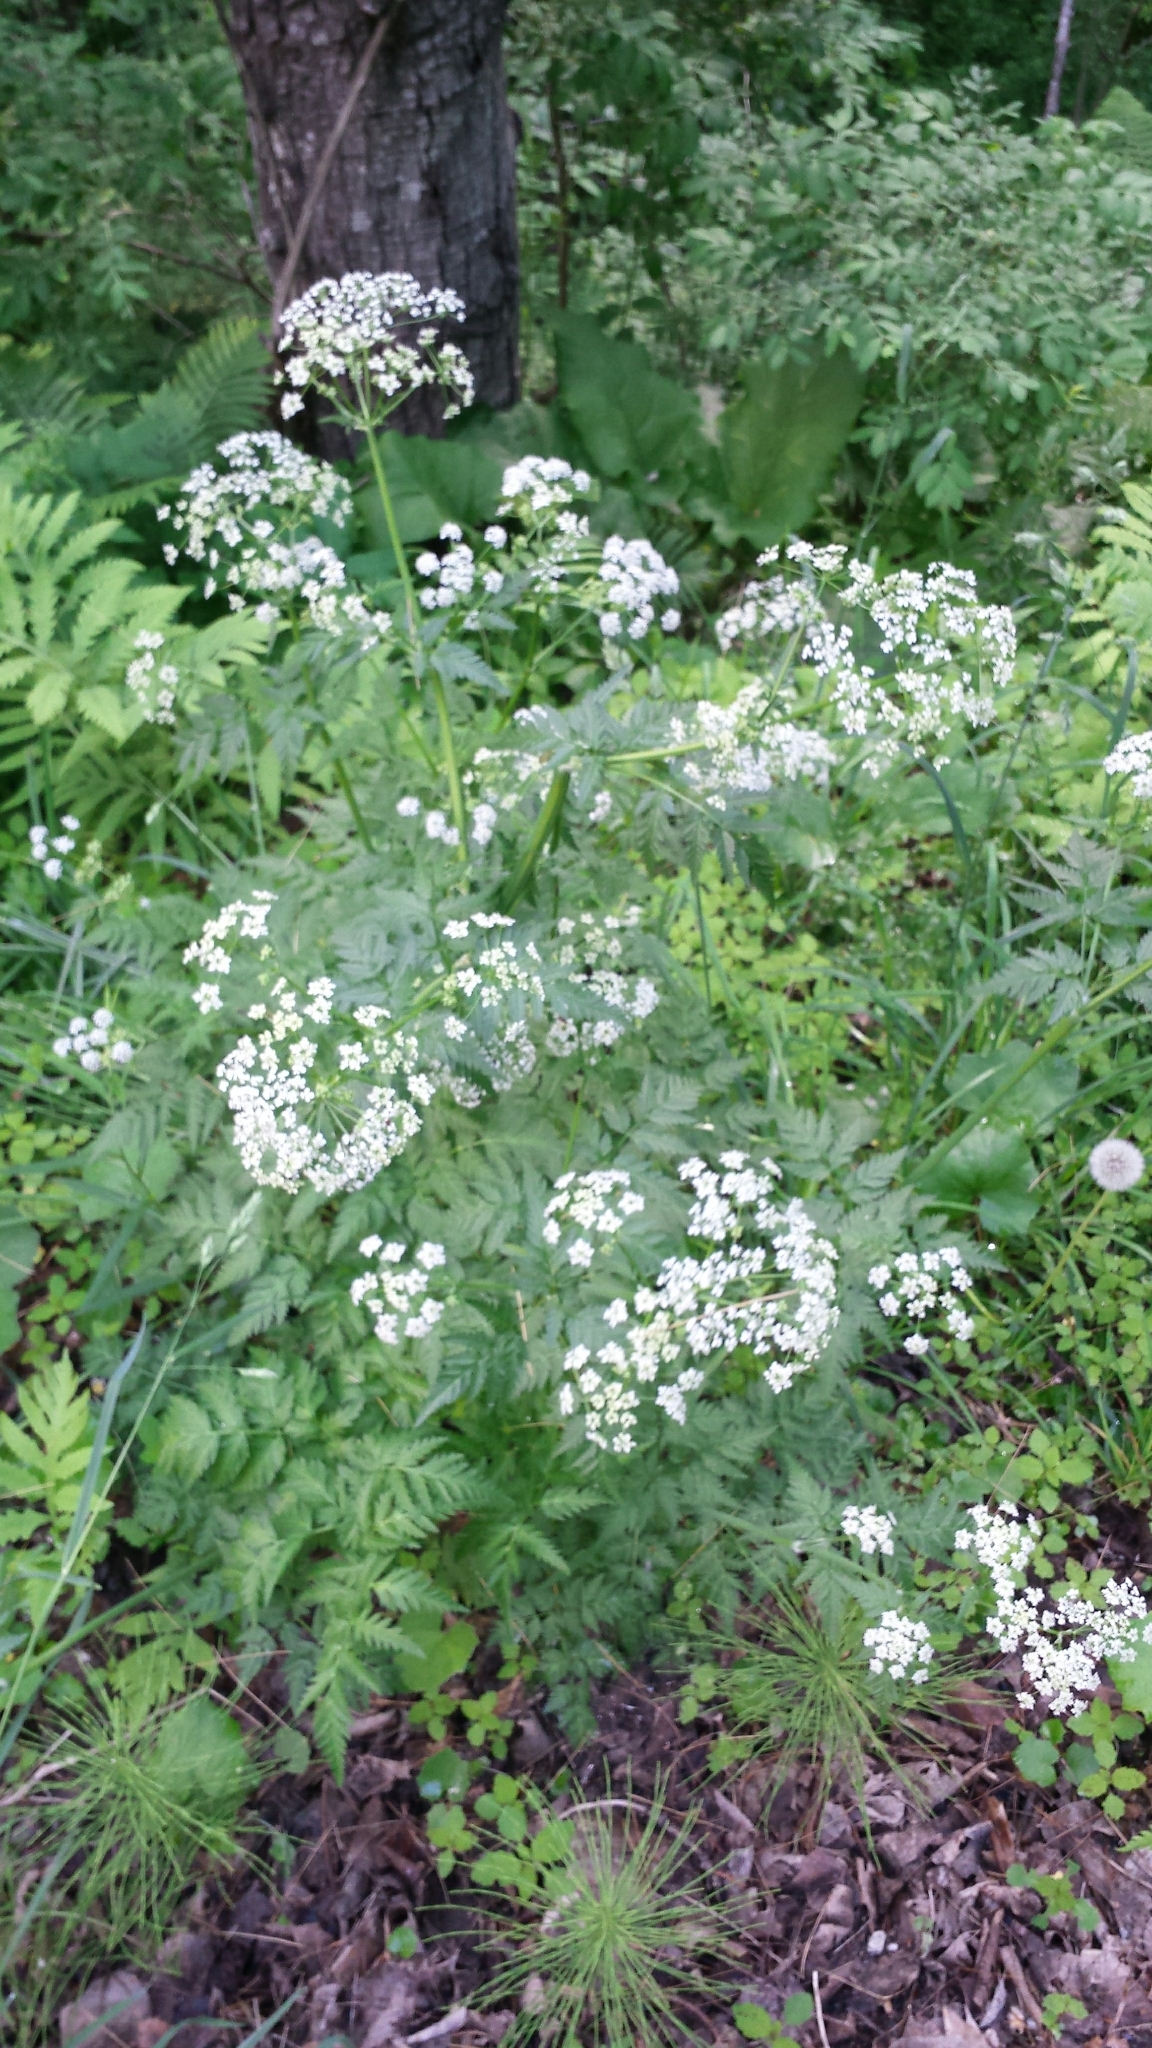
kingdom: Plantae
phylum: Tracheophyta
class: Magnoliopsida
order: Apiales
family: Apiaceae
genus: Anthriscus
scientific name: Anthriscus sylvestris
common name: Cow parsley
